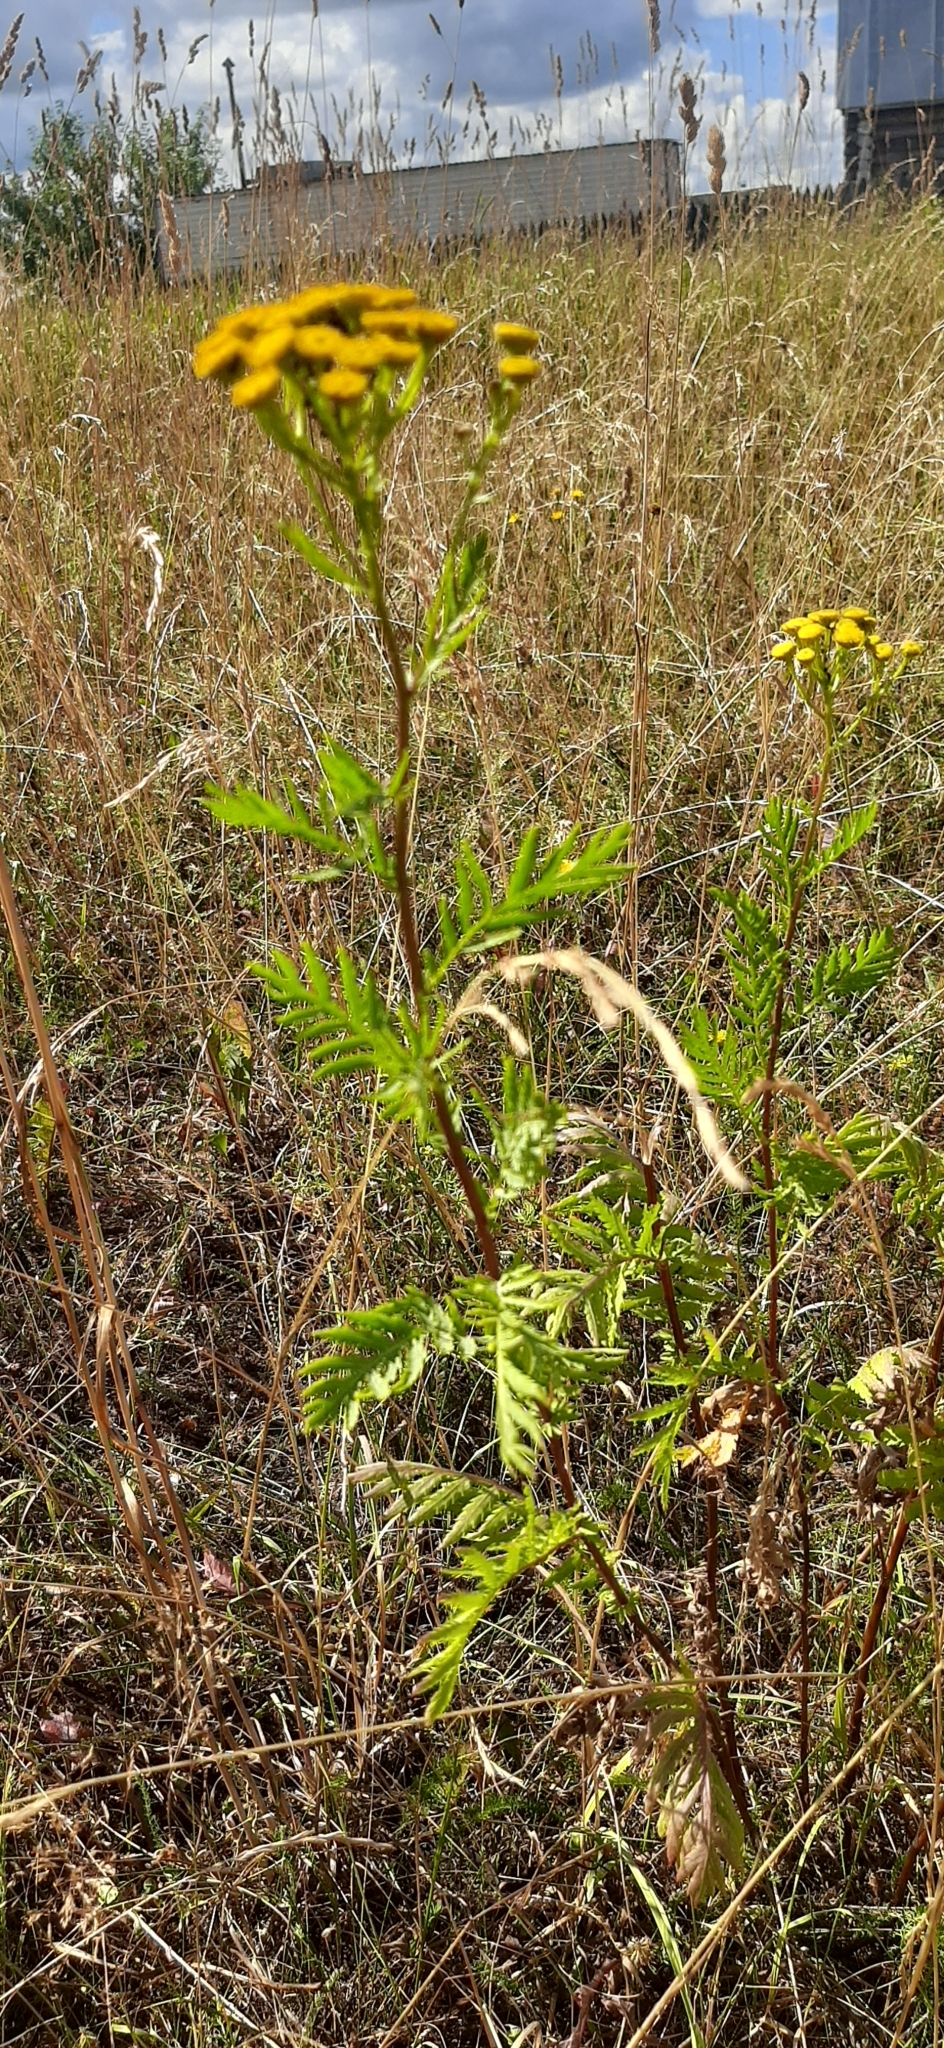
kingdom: Plantae
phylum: Tracheophyta
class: Magnoliopsida
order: Asterales
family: Asteraceae
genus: Tanacetum
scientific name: Tanacetum vulgare
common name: Common tansy
